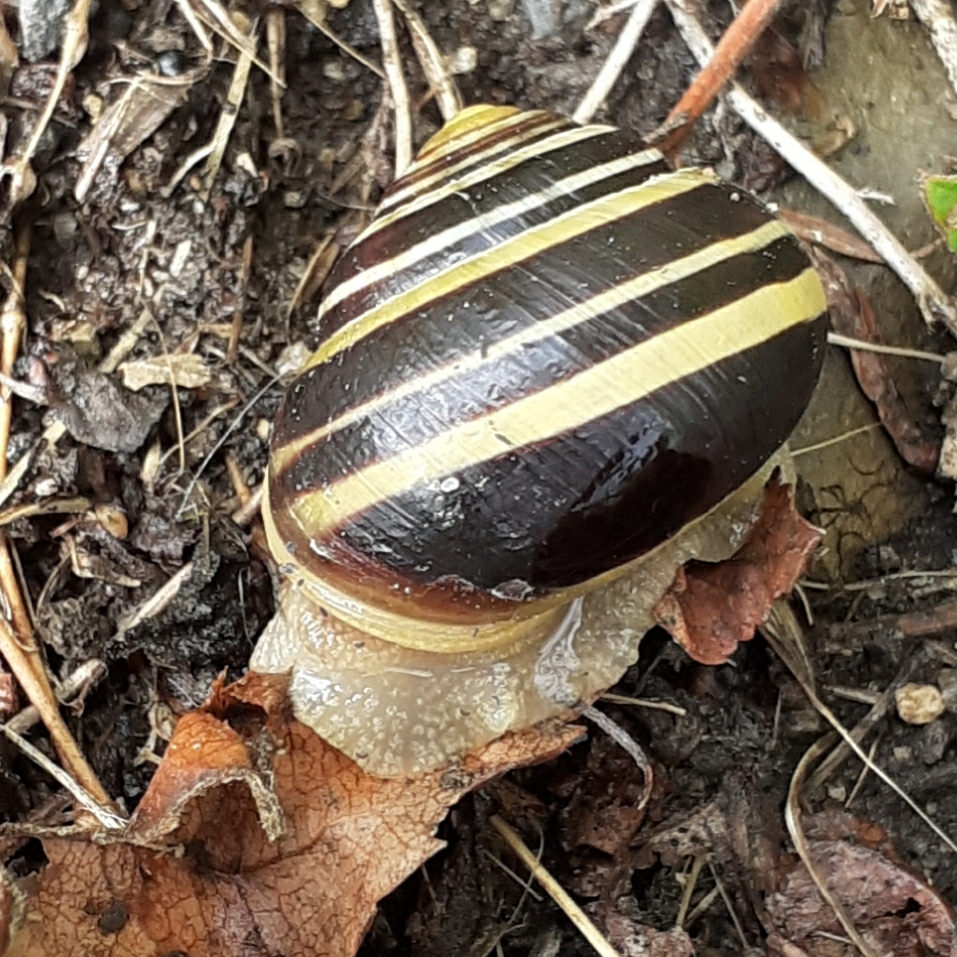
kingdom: Animalia
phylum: Mollusca
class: Gastropoda
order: Stylommatophora
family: Helicidae
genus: Cepaea
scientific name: Cepaea nemoralis
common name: Grovesnail
